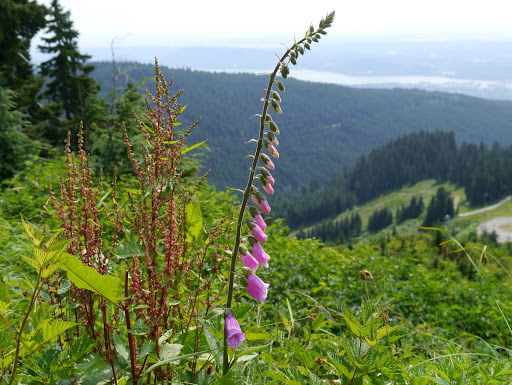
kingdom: Plantae
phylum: Tracheophyta
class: Magnoliopsida
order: Lamiales
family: Plantaginaceae
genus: Digitalis
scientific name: Digitalis purpurea
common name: Foxglove
